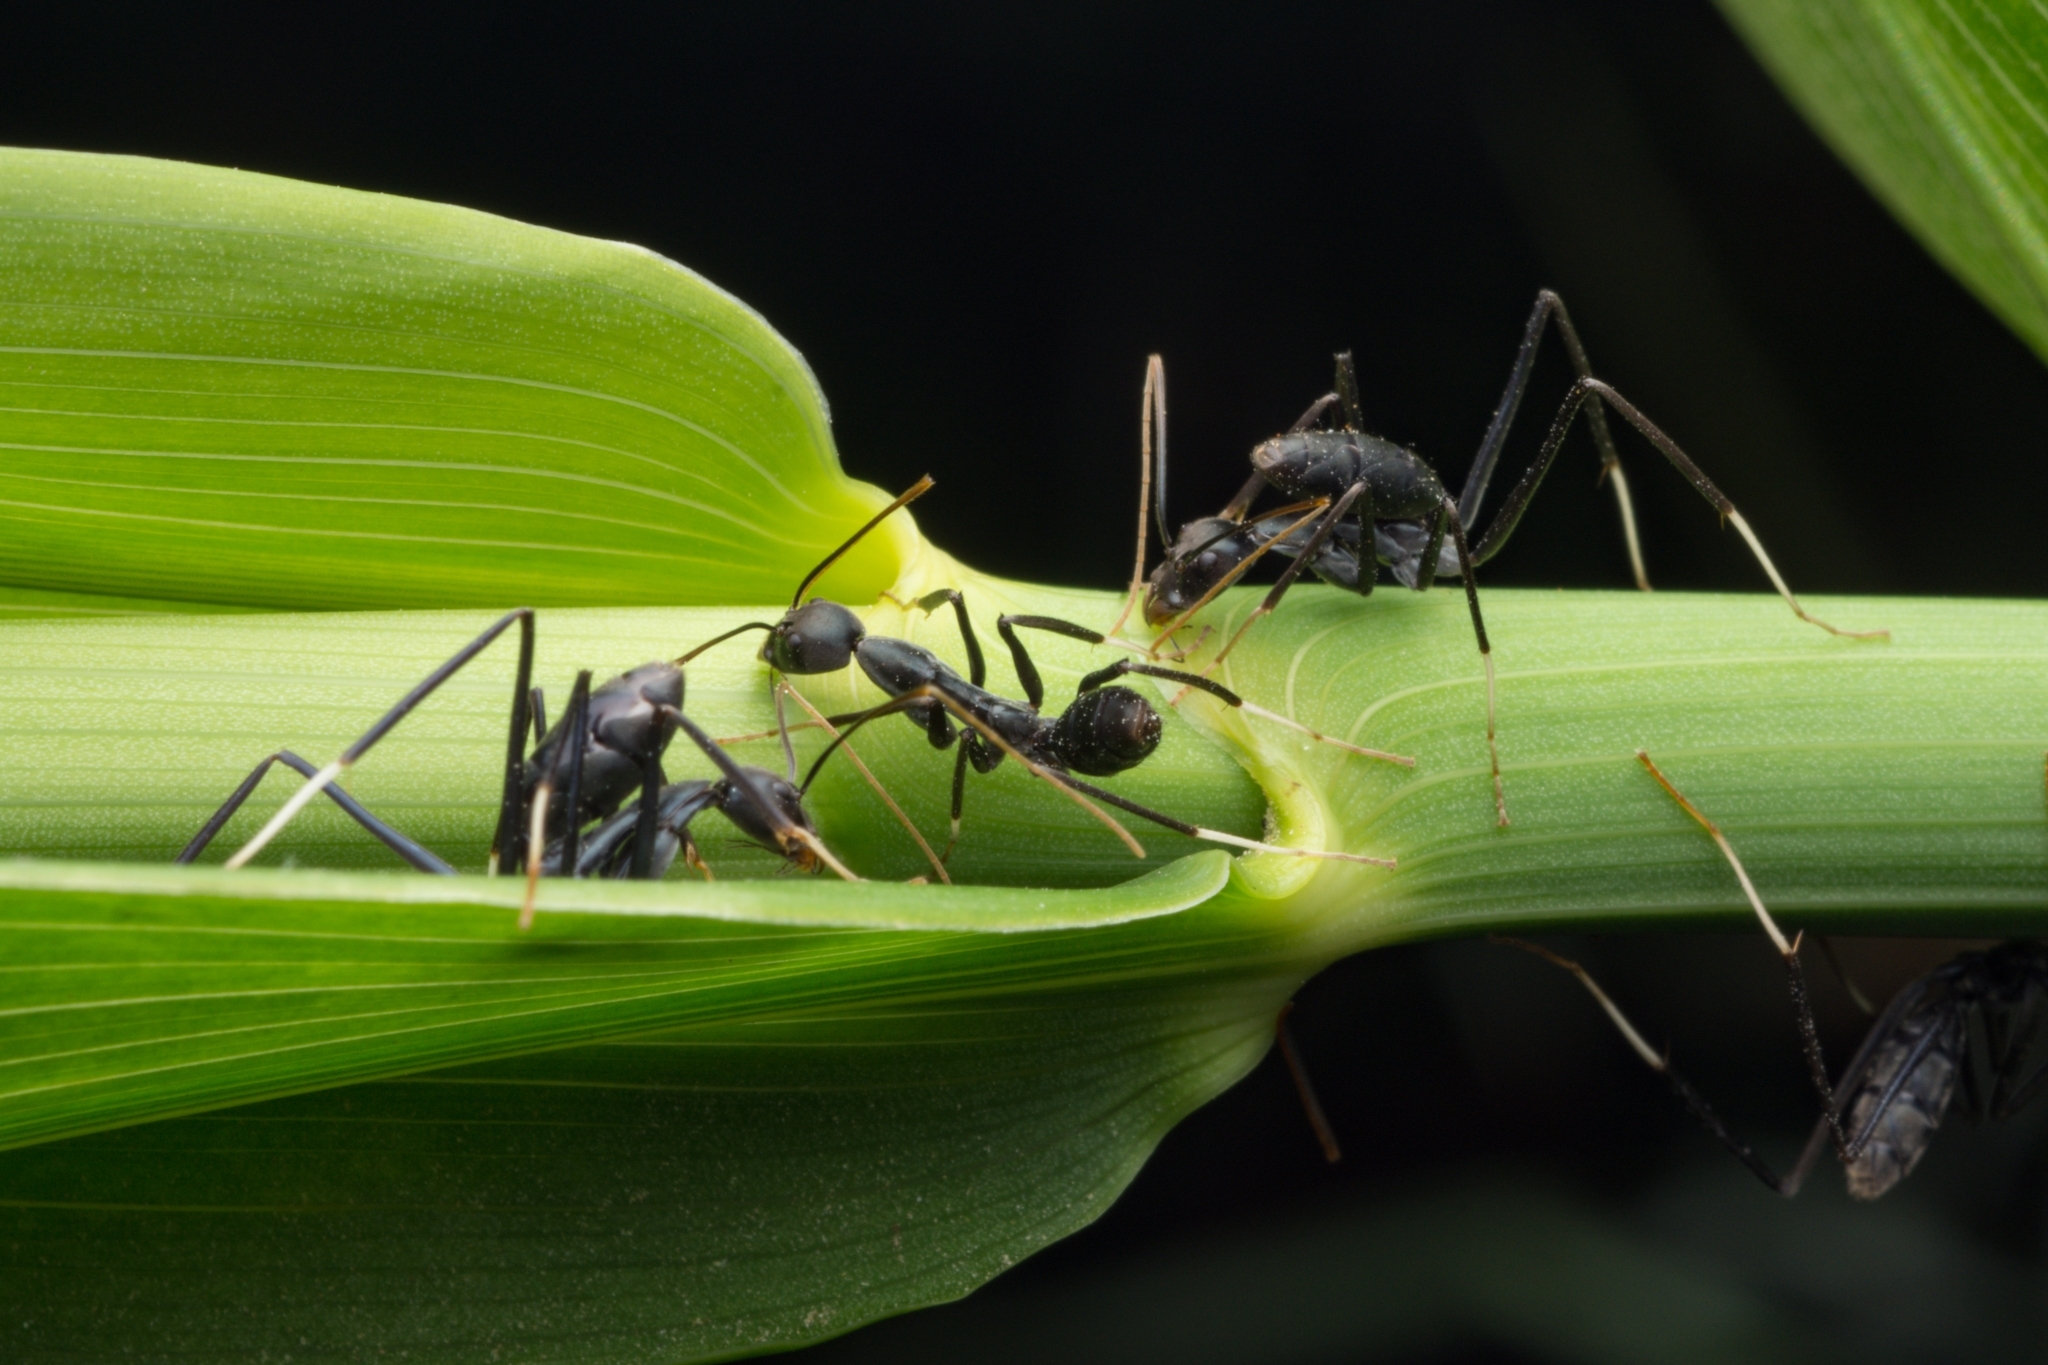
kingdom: Animalia
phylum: Arthropoda
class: Insecta
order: Hymenoptera
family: Formicidae
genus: Leptomyrmex
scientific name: Leptomyrmex unicolor
